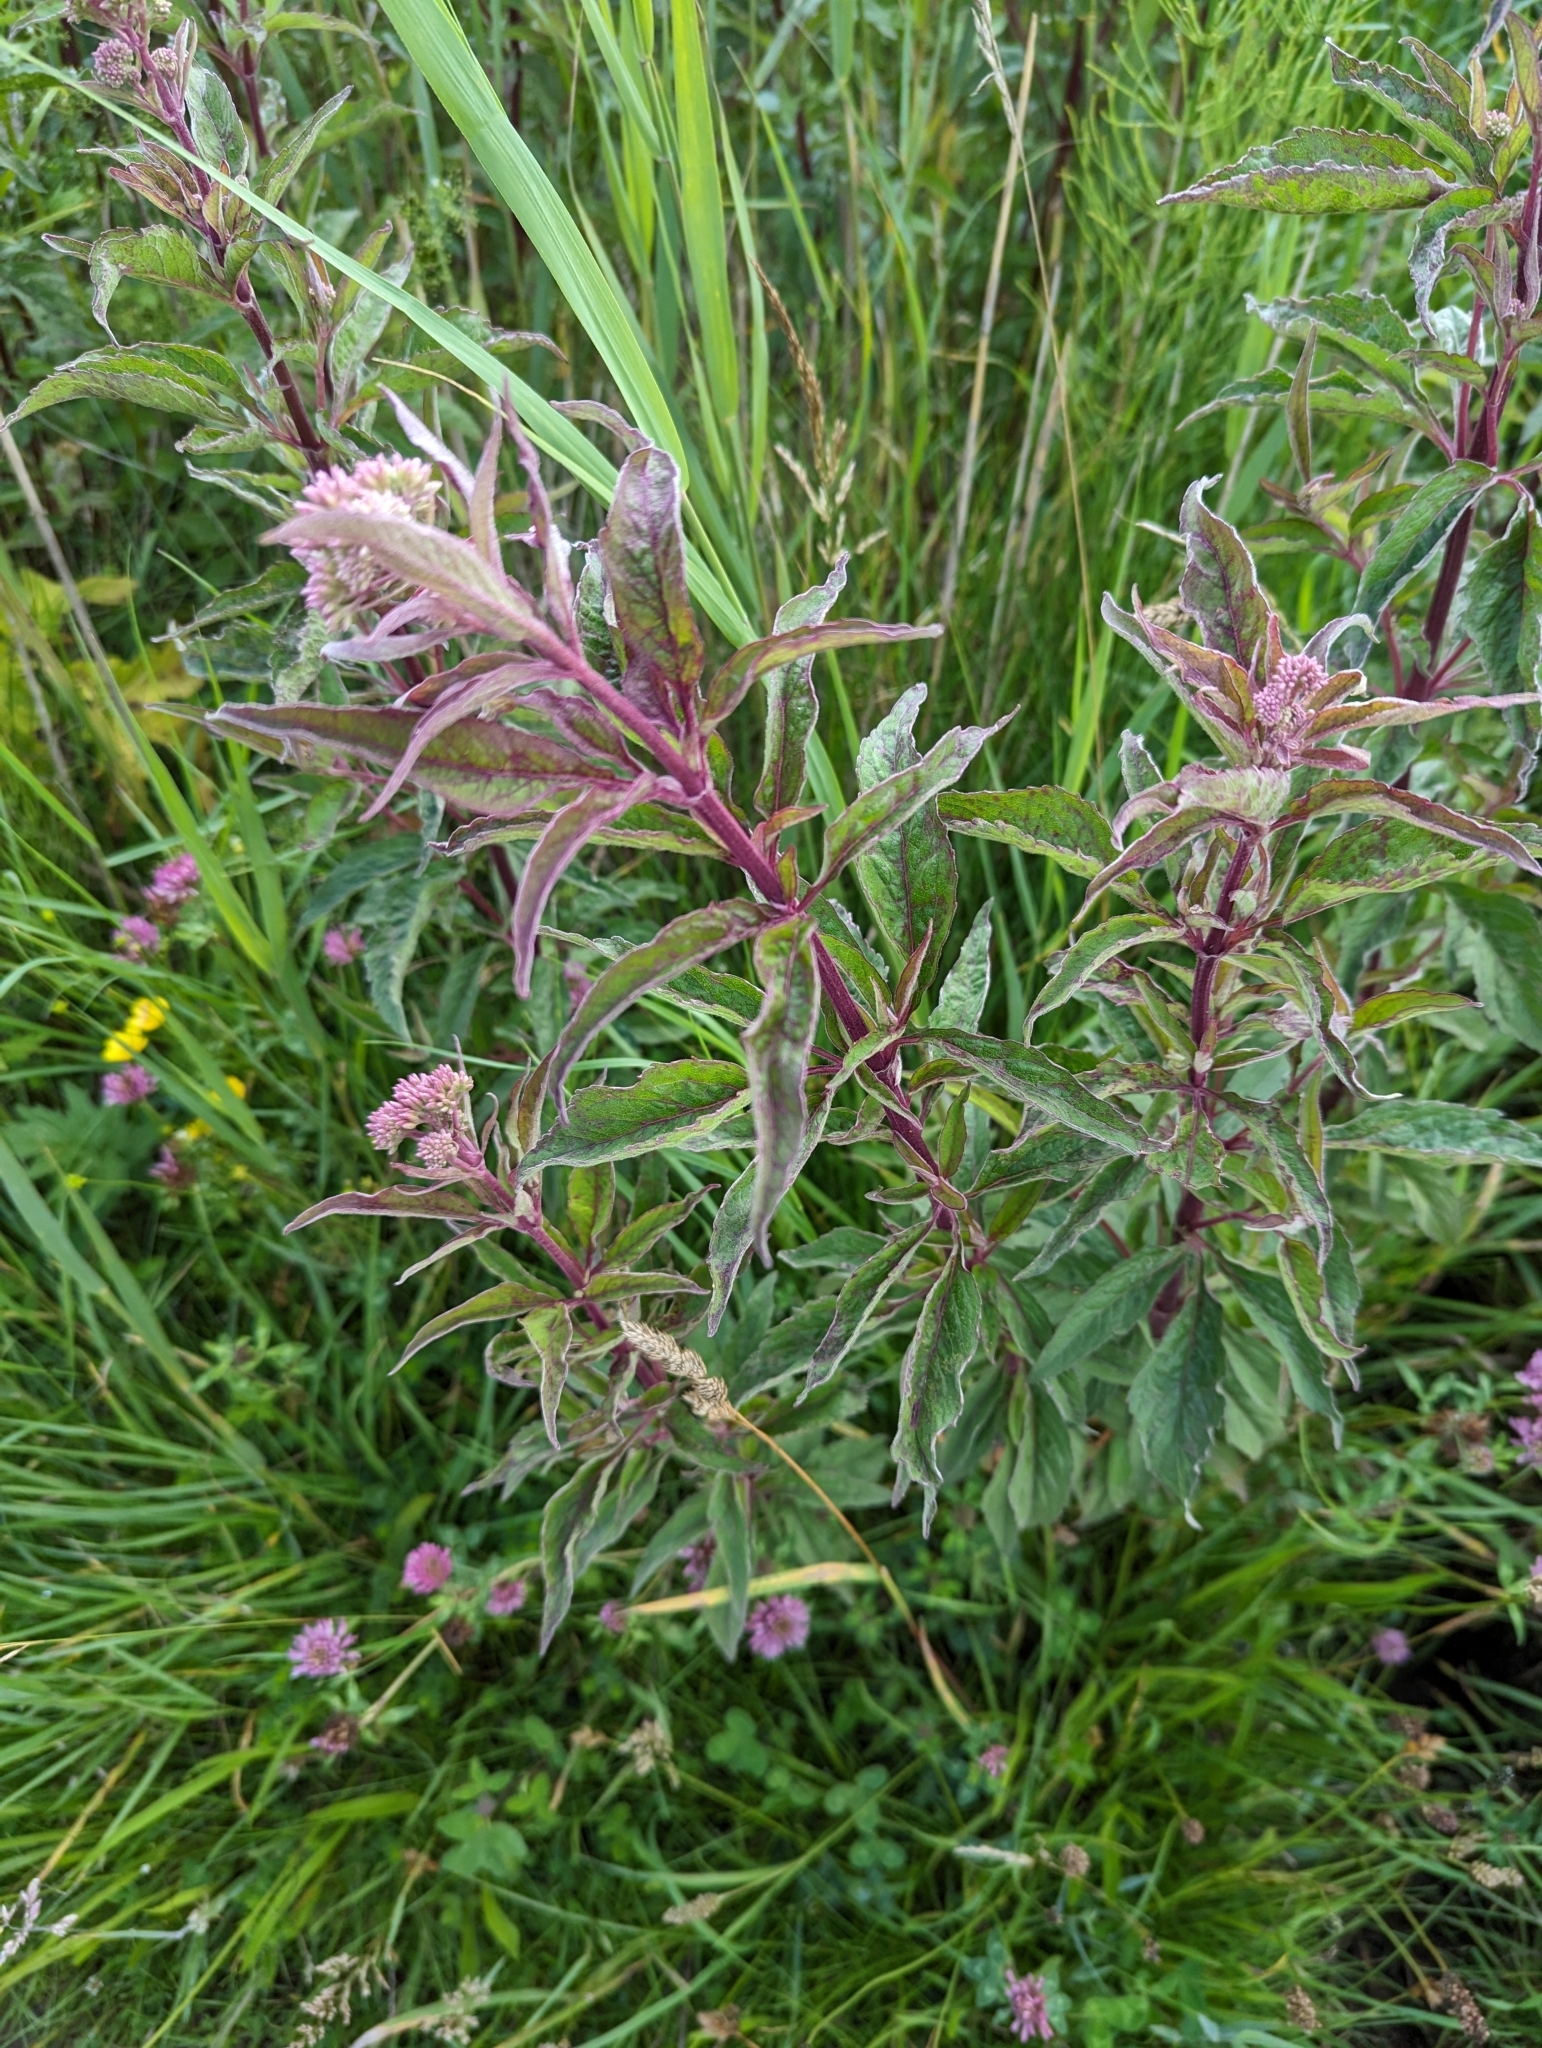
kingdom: Plantae
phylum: Tracheophyta
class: Magnoliopsida
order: Asterales
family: Asteraceae
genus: Eupatorium
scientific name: Eupatorium cannabinum
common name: Hemp-agrimony
